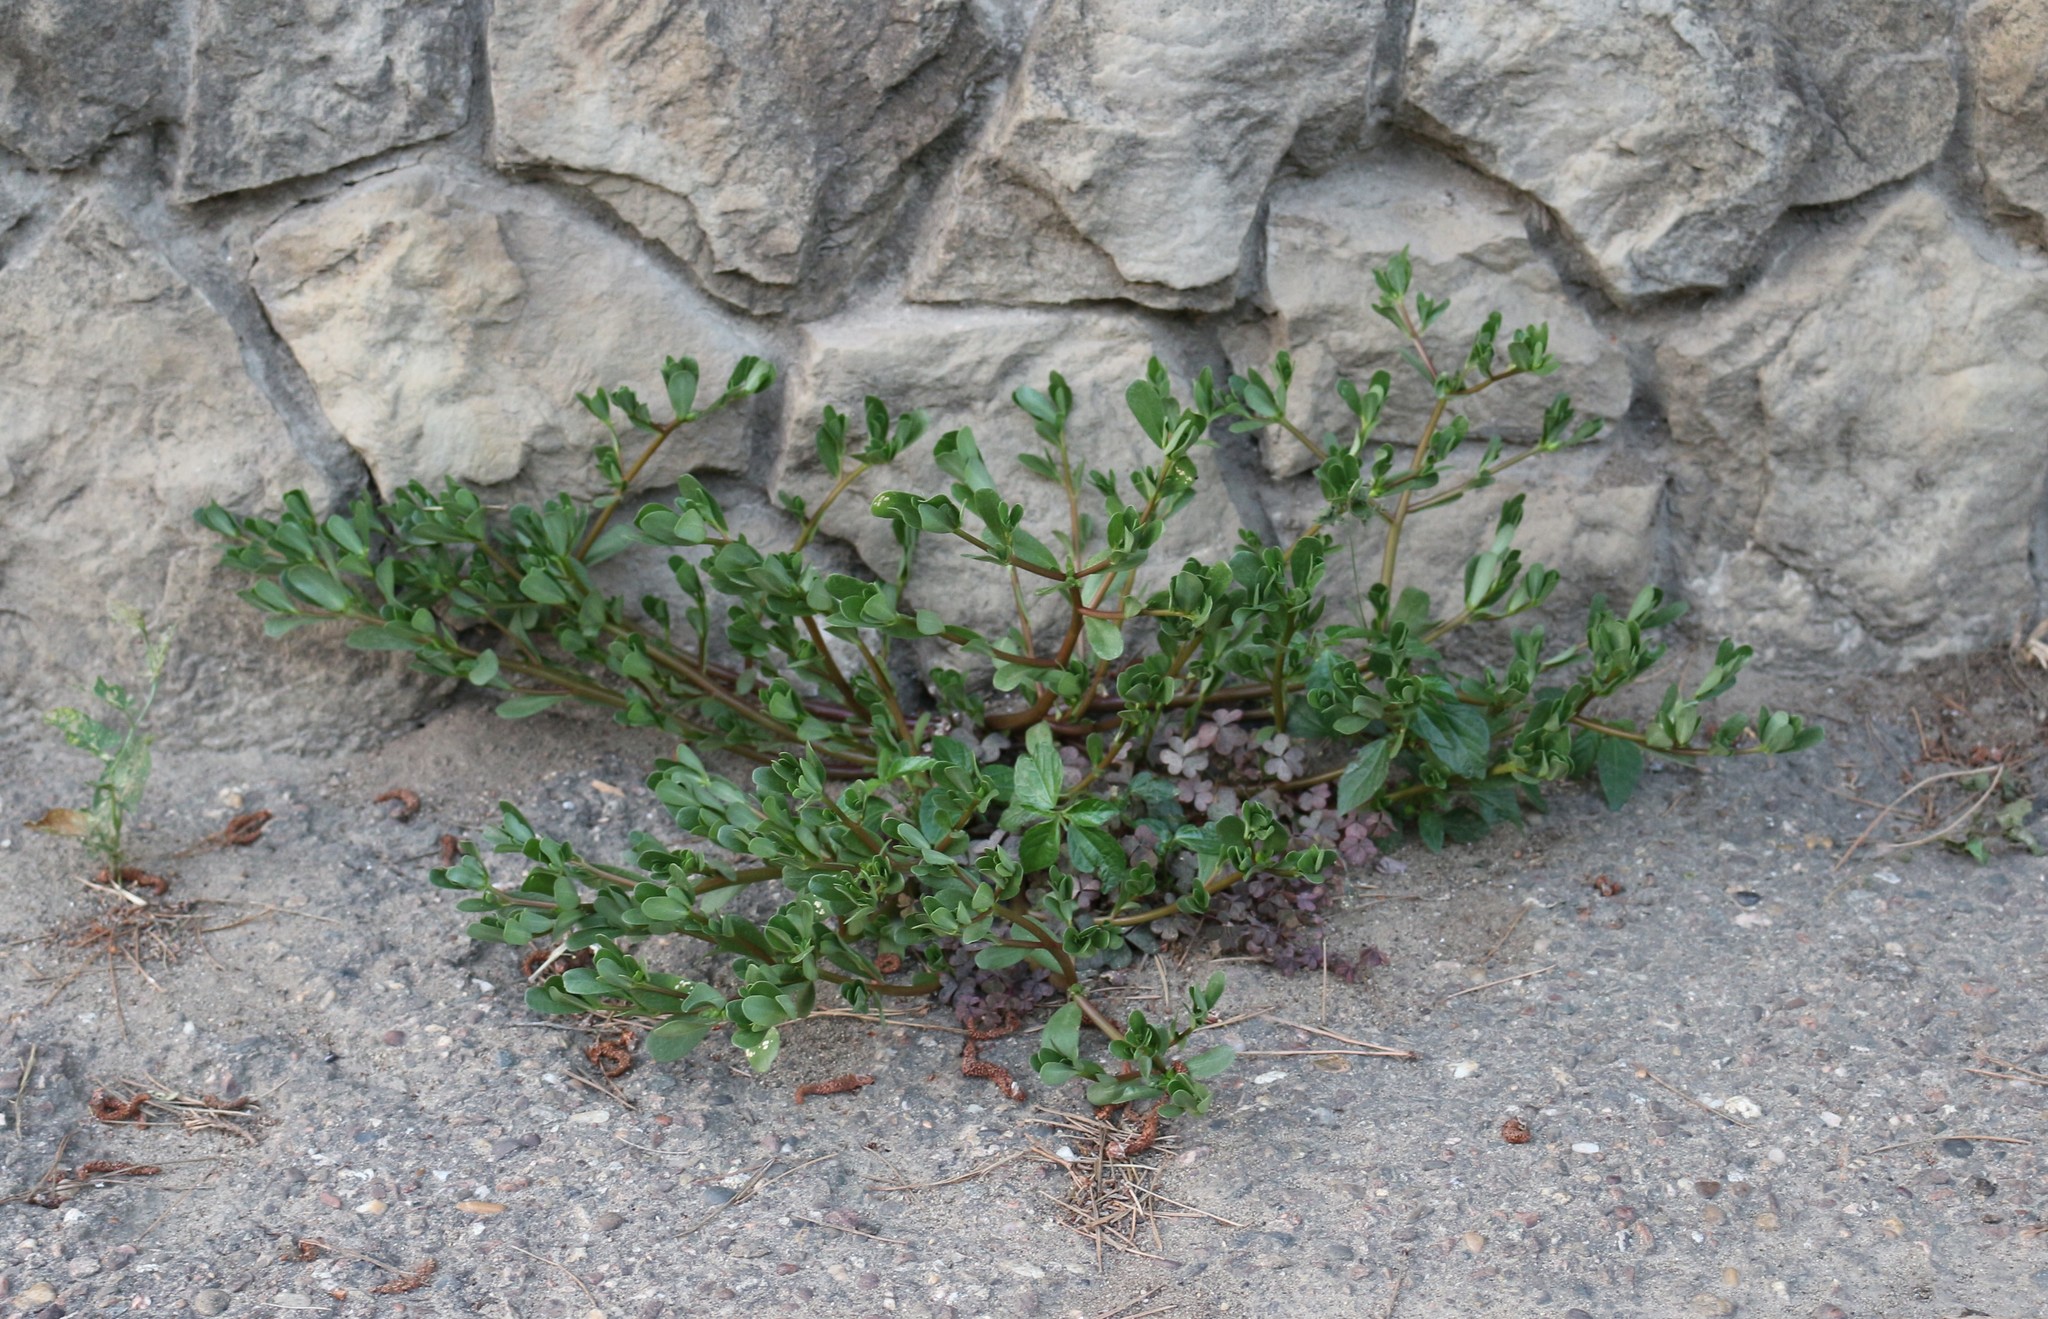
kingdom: Plantae
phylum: Tracheophyta
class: Magnoliopsida
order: Caryophyllales
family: Portulacaceae
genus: Portulaca
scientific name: Portulaca oleracea
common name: Common purslane
